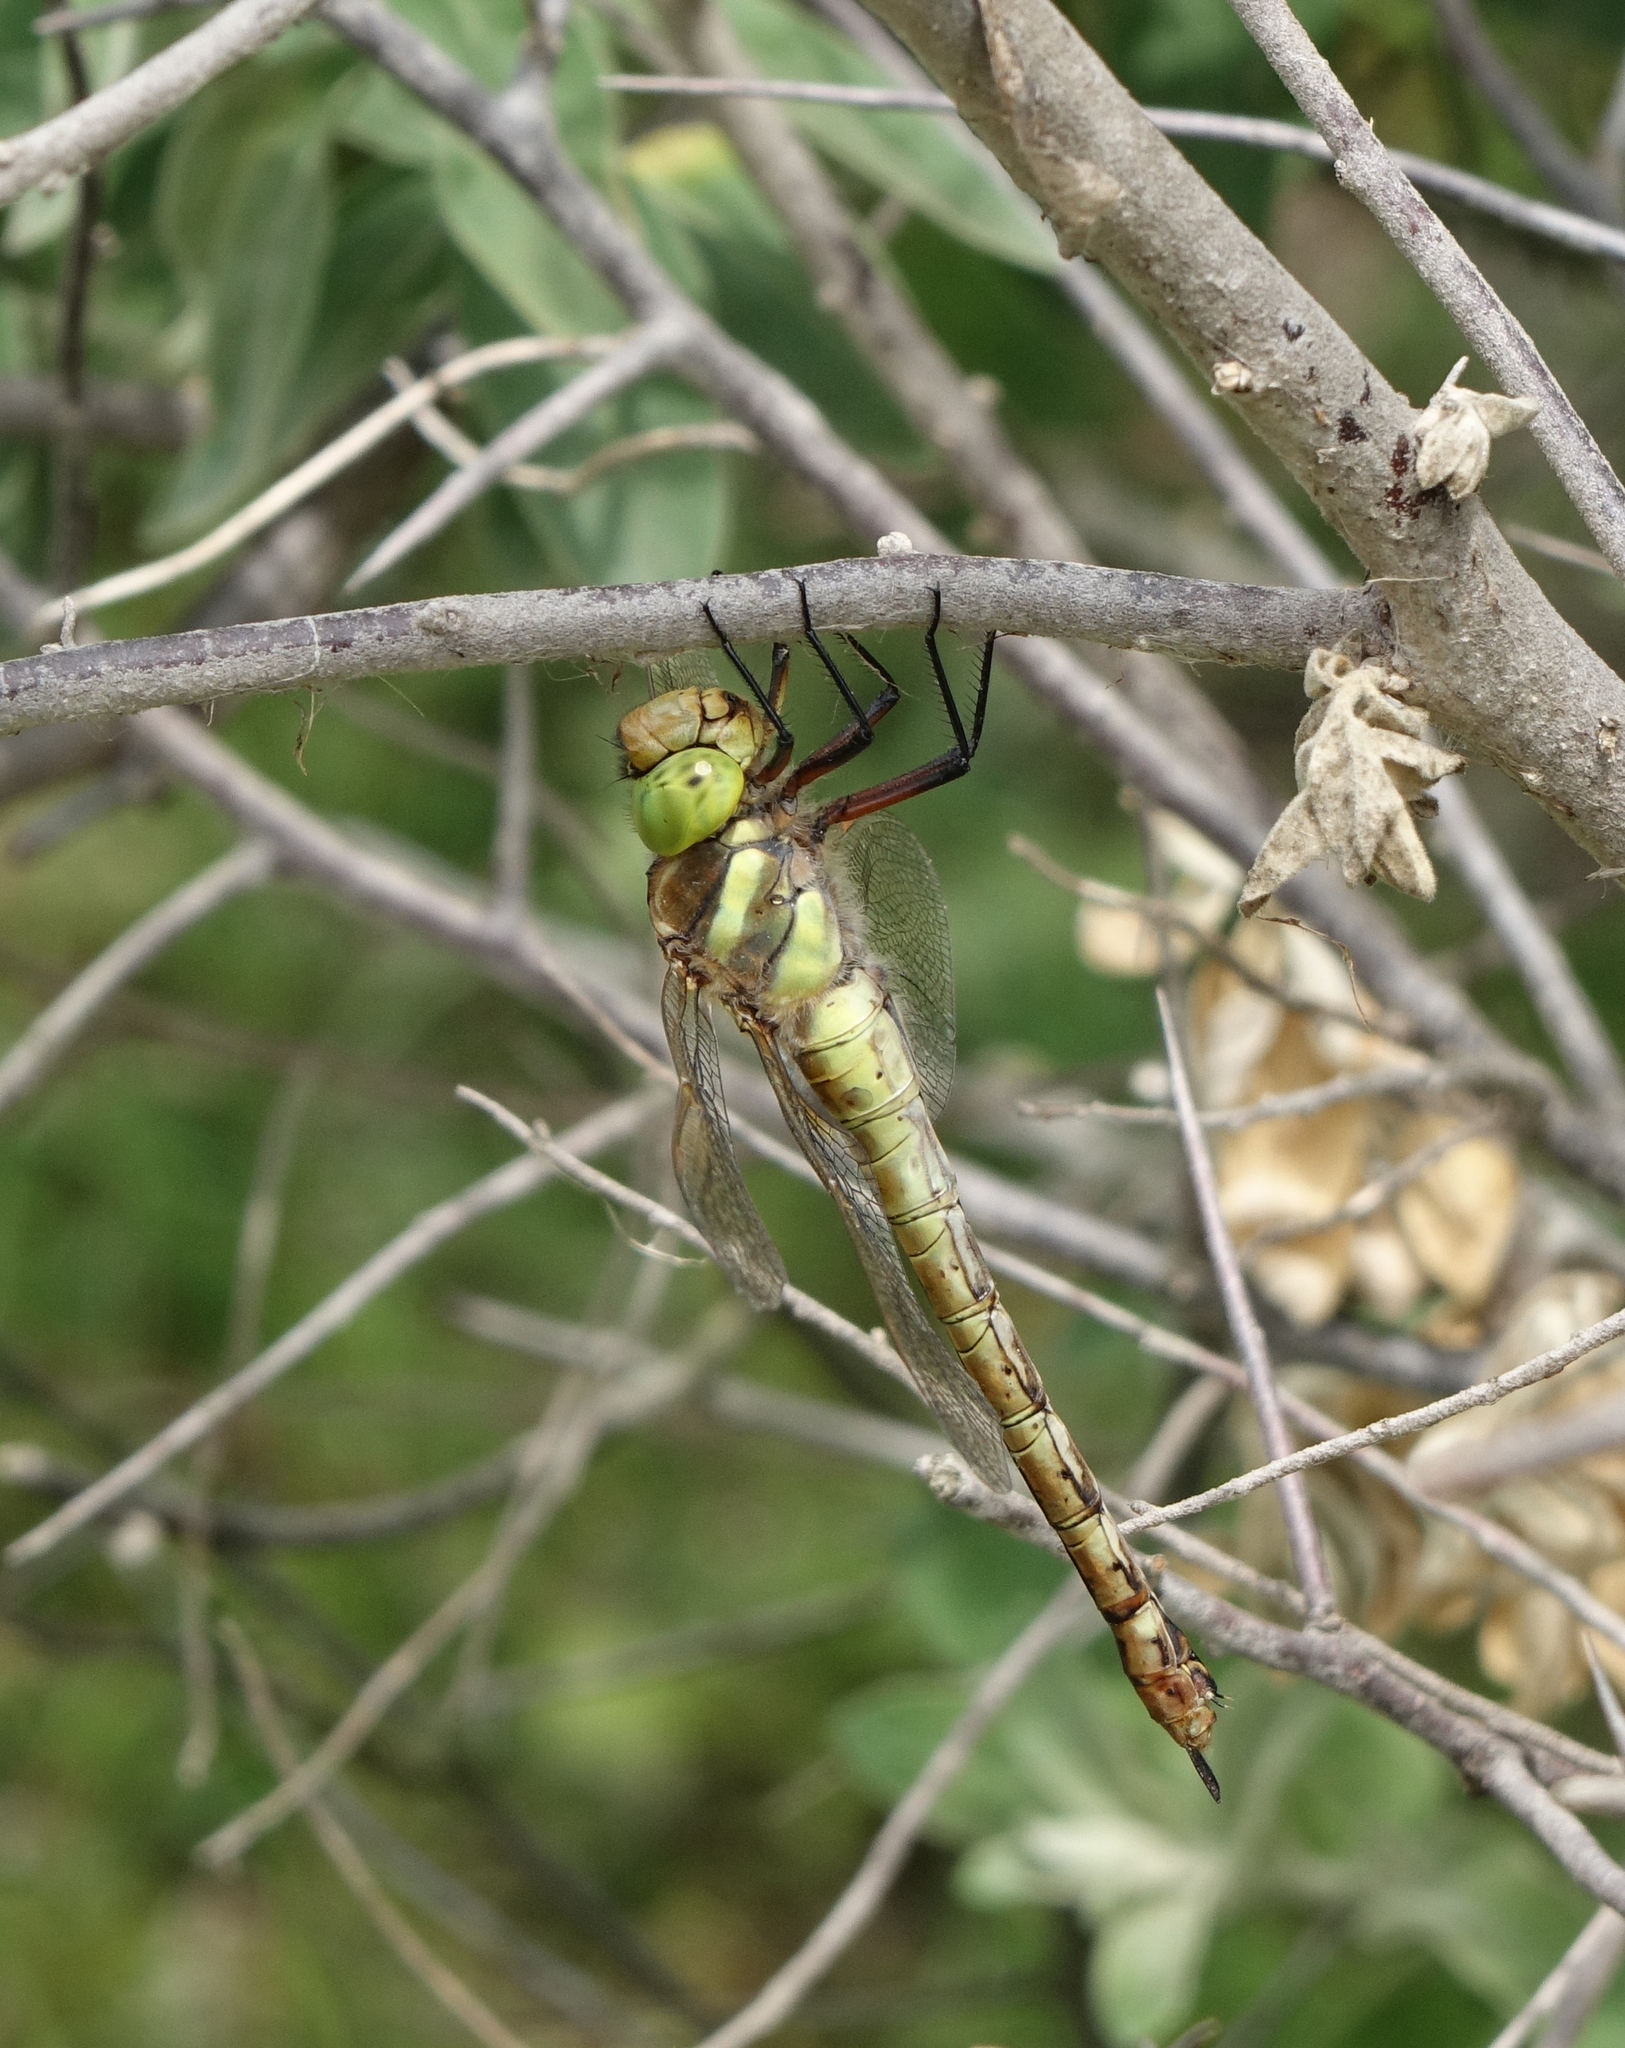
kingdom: Animalia
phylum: Arthropoda
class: Insecta
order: Odonata
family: Aeshnidae
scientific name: Aeshnidae
